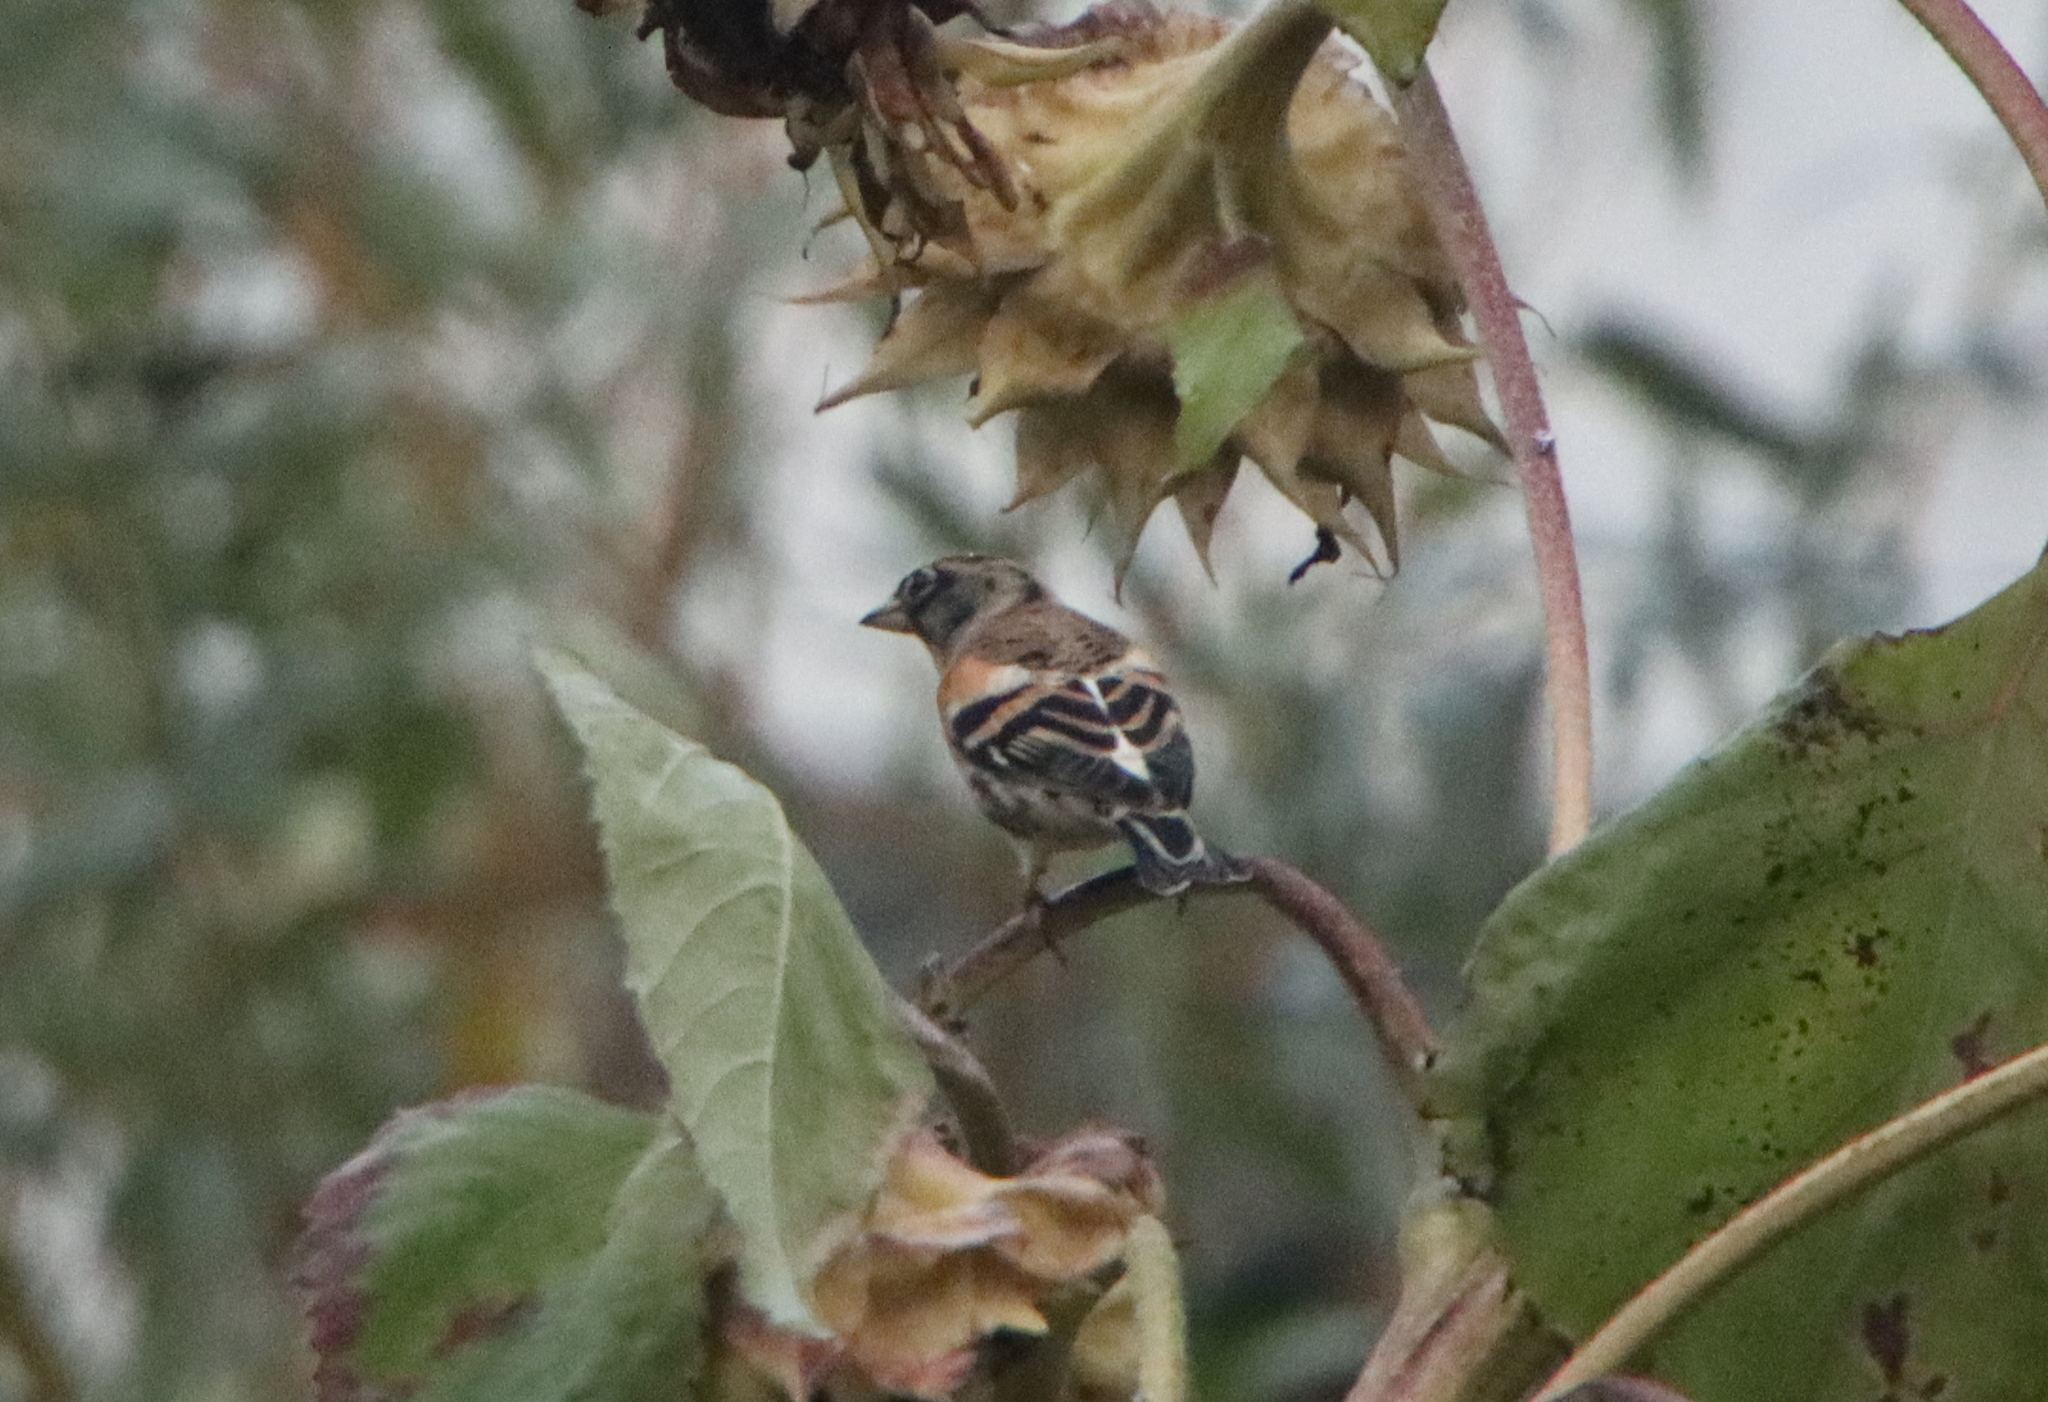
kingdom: Animalia
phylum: Chordata
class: Aves
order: Passeriformes
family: Fringillidae
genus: Fringilla
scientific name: Fringilla montifringilla
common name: Brambling
